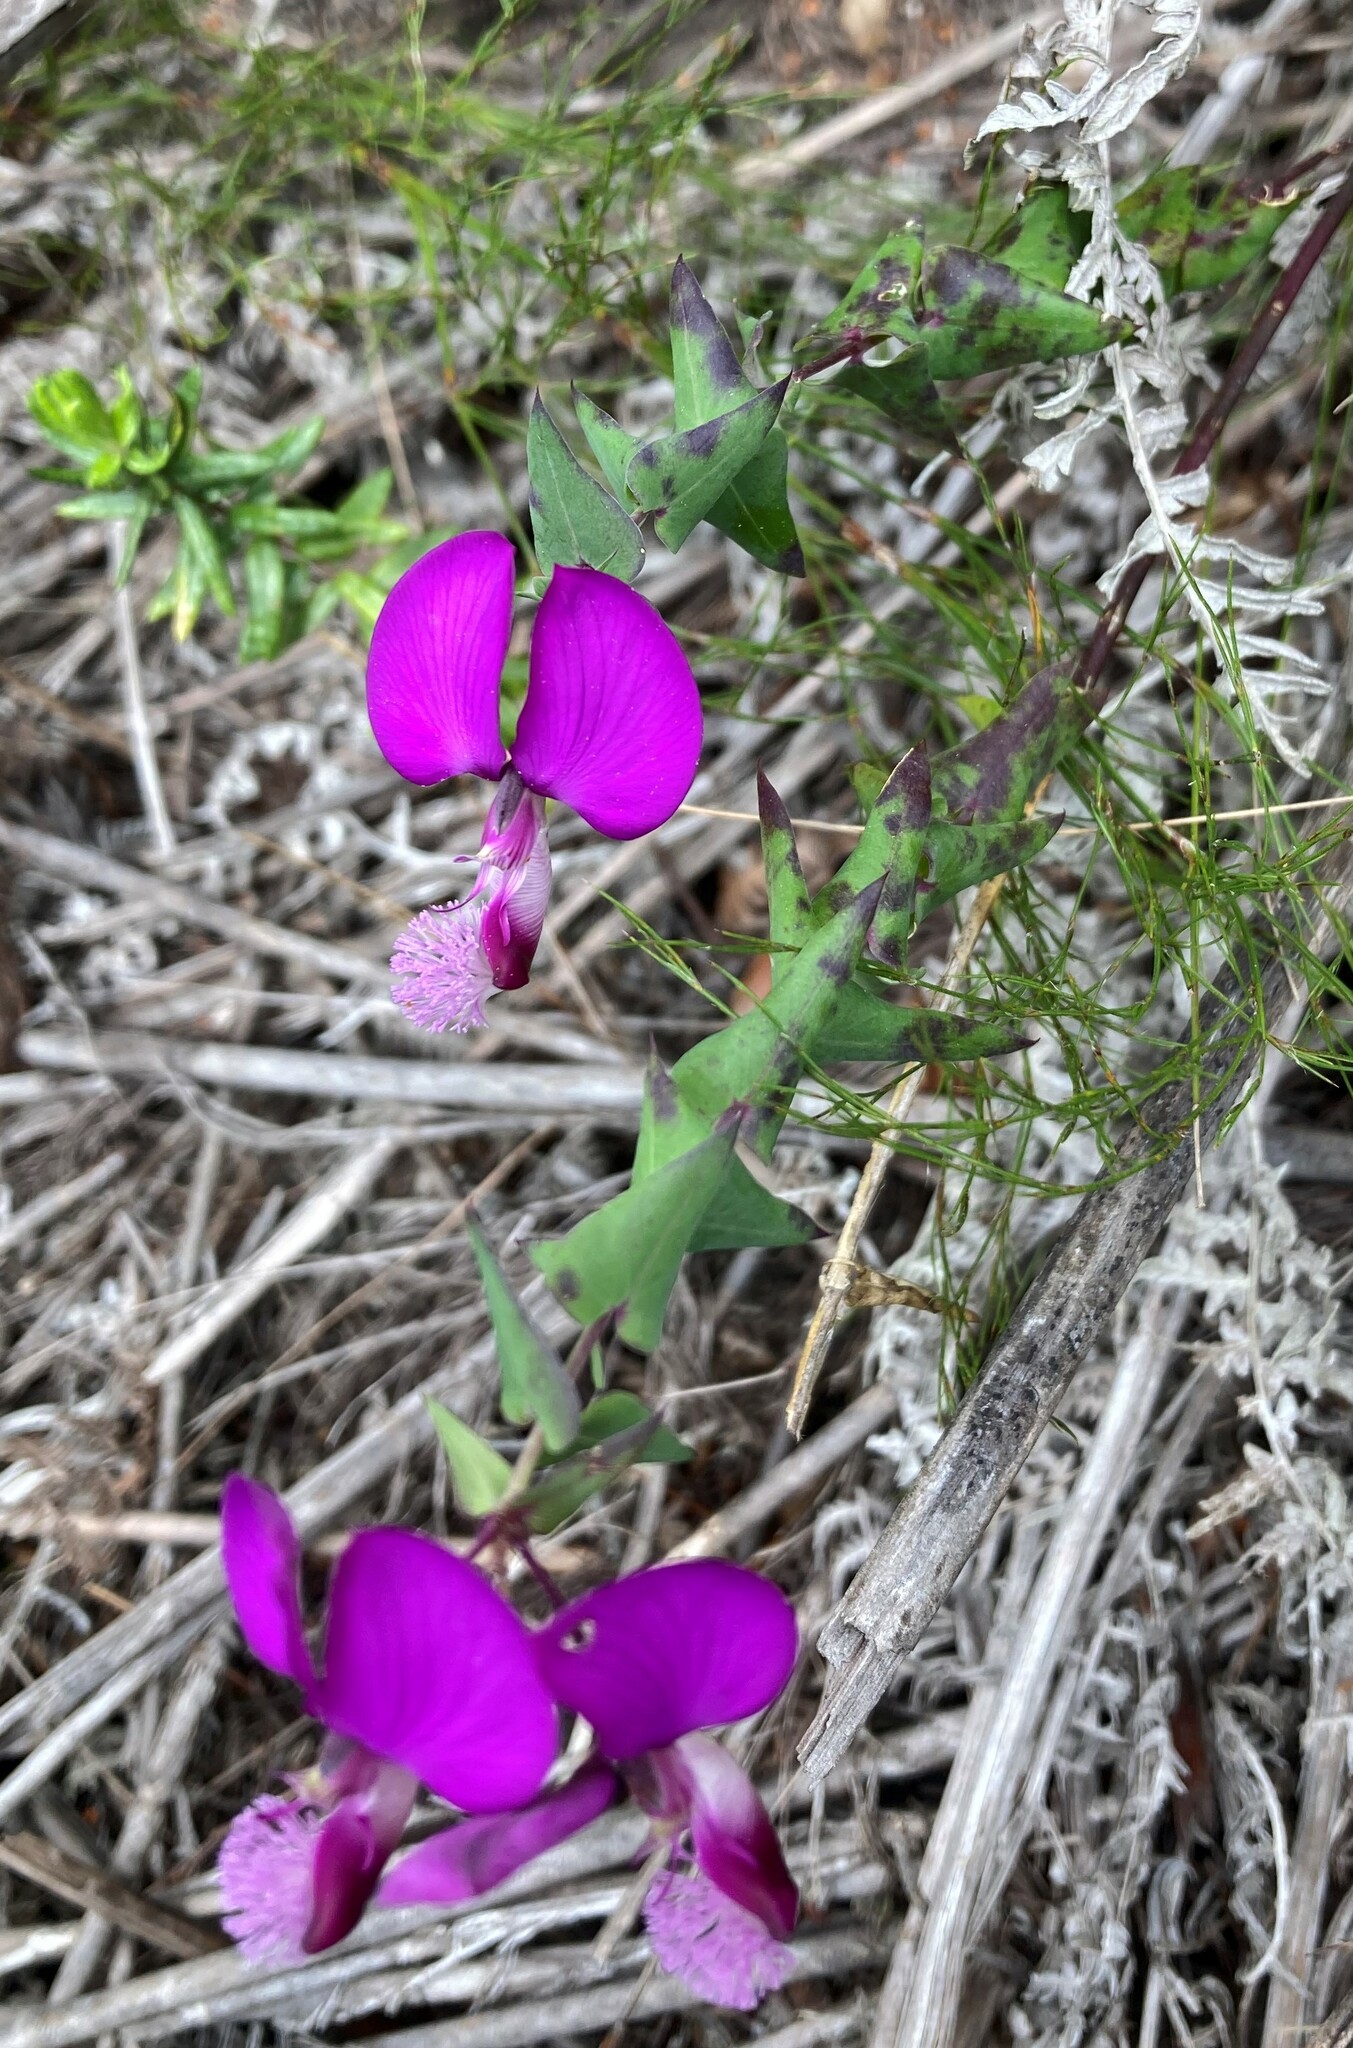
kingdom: Plantae
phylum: Tracheophyta
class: Magnoliopsida
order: Fabales
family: Polygalaceae
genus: Polygala
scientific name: Polygala fruticosa
